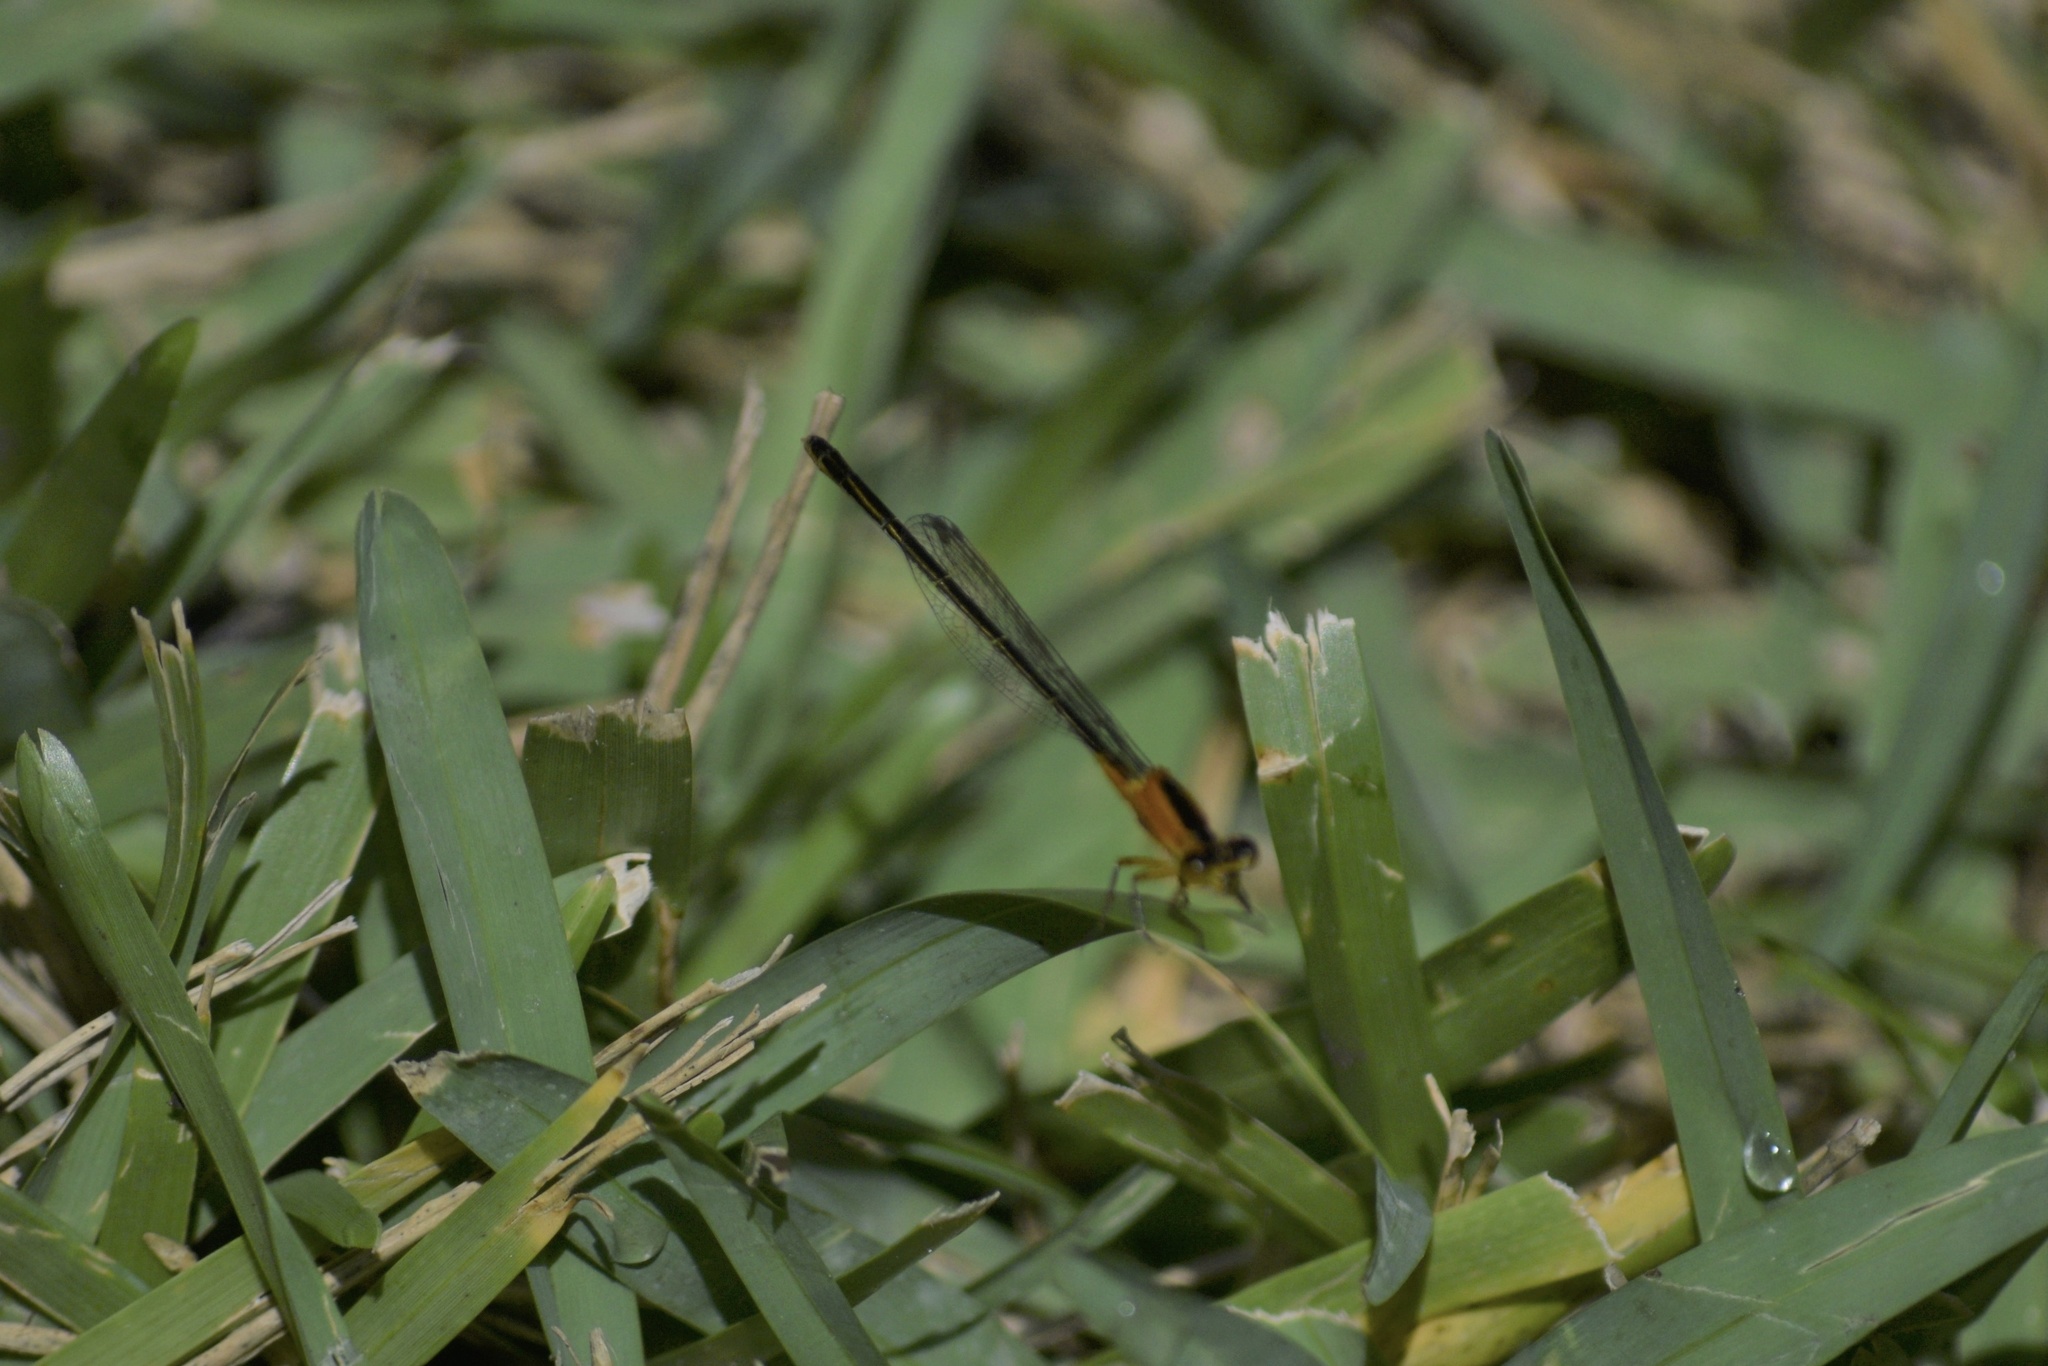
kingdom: Animalia
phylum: Arthropoda
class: Insecta
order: Odonata
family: Coenagrionidae
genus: Ischnura
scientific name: Ischnura ramburii
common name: Rambur's forktail
